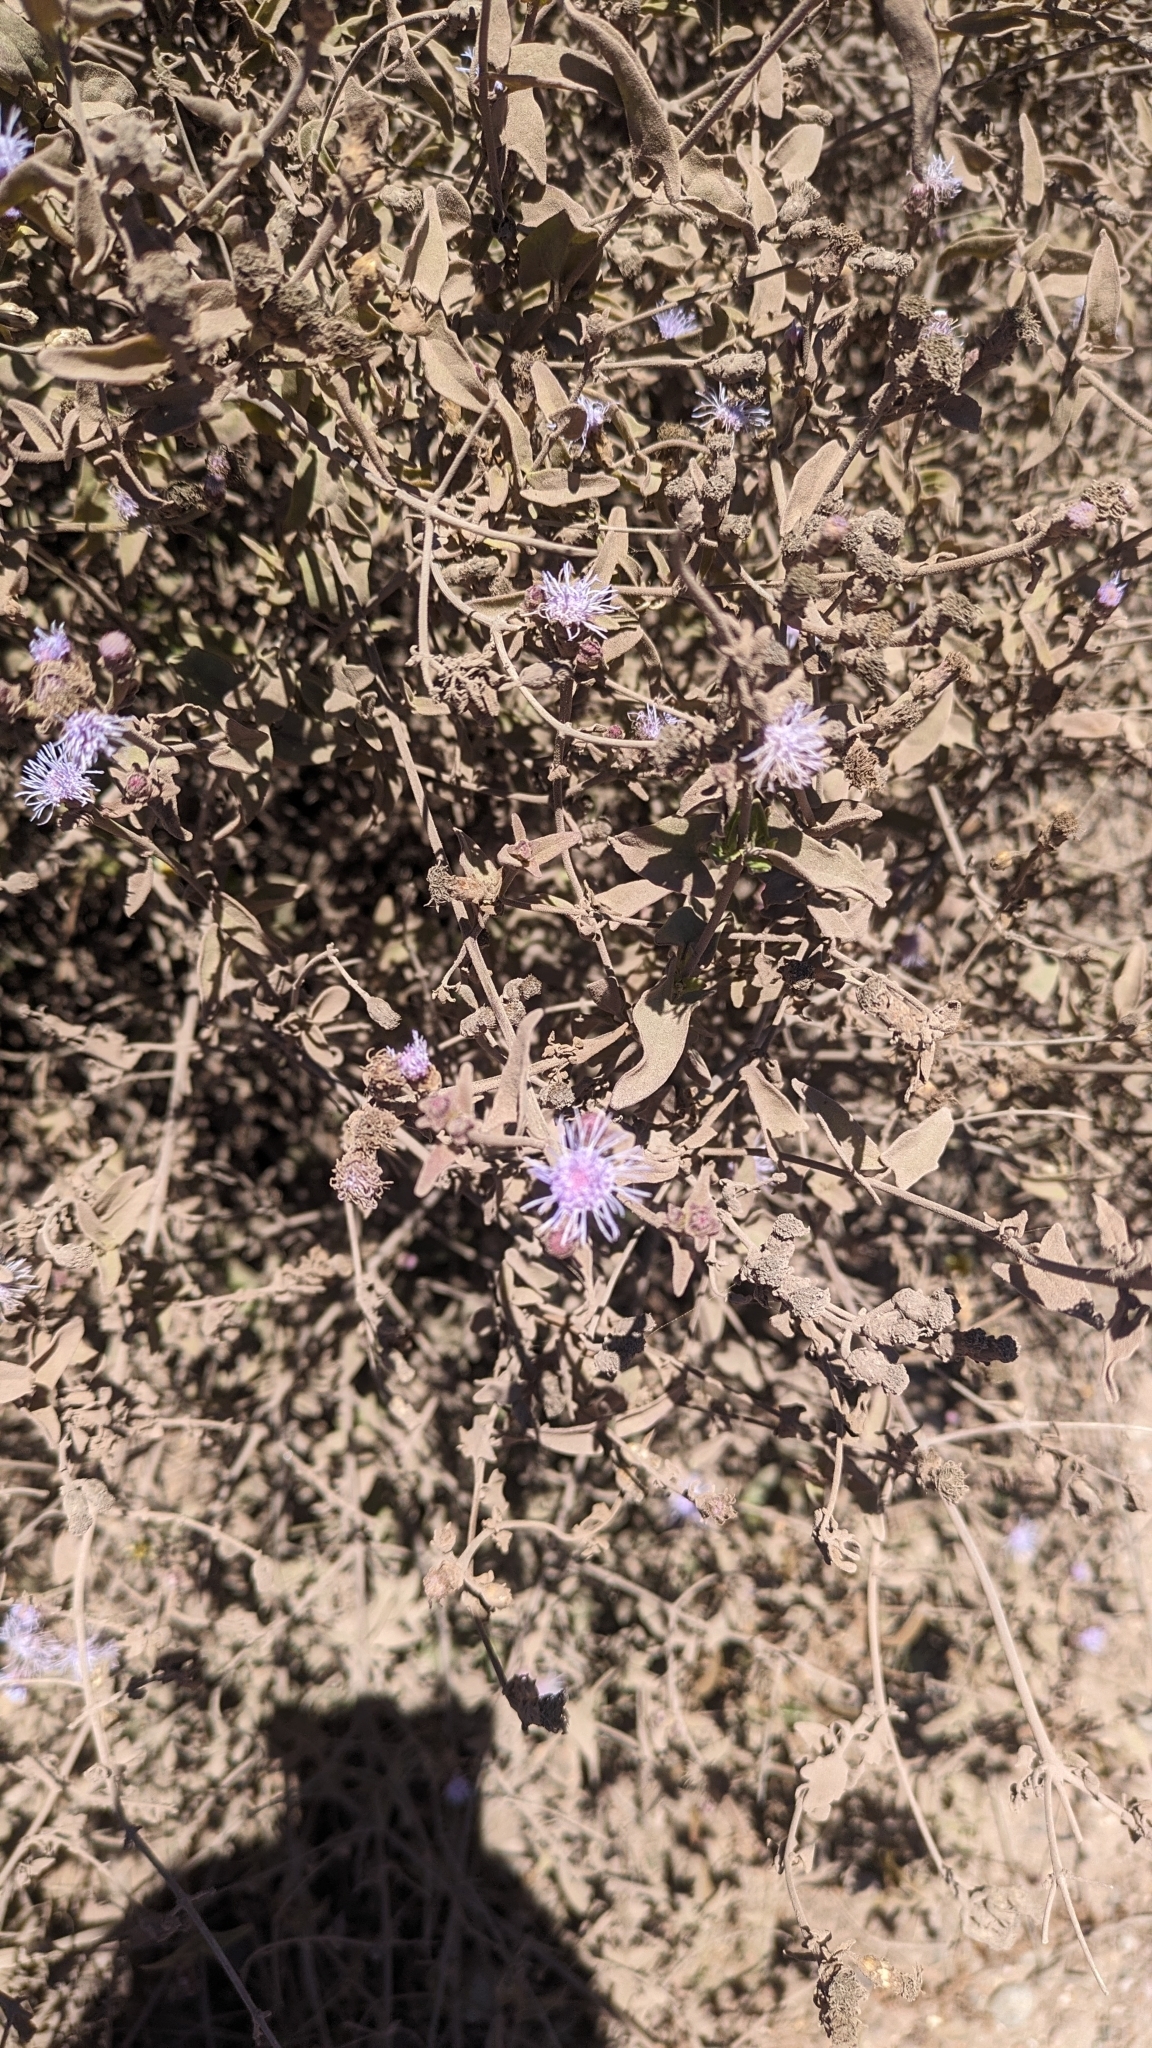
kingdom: Plantae
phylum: Tracheophyta
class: Magnoliopsida
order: Asterales
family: Asteraceae
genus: Chromolaena
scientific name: Chromolaena sagittata
